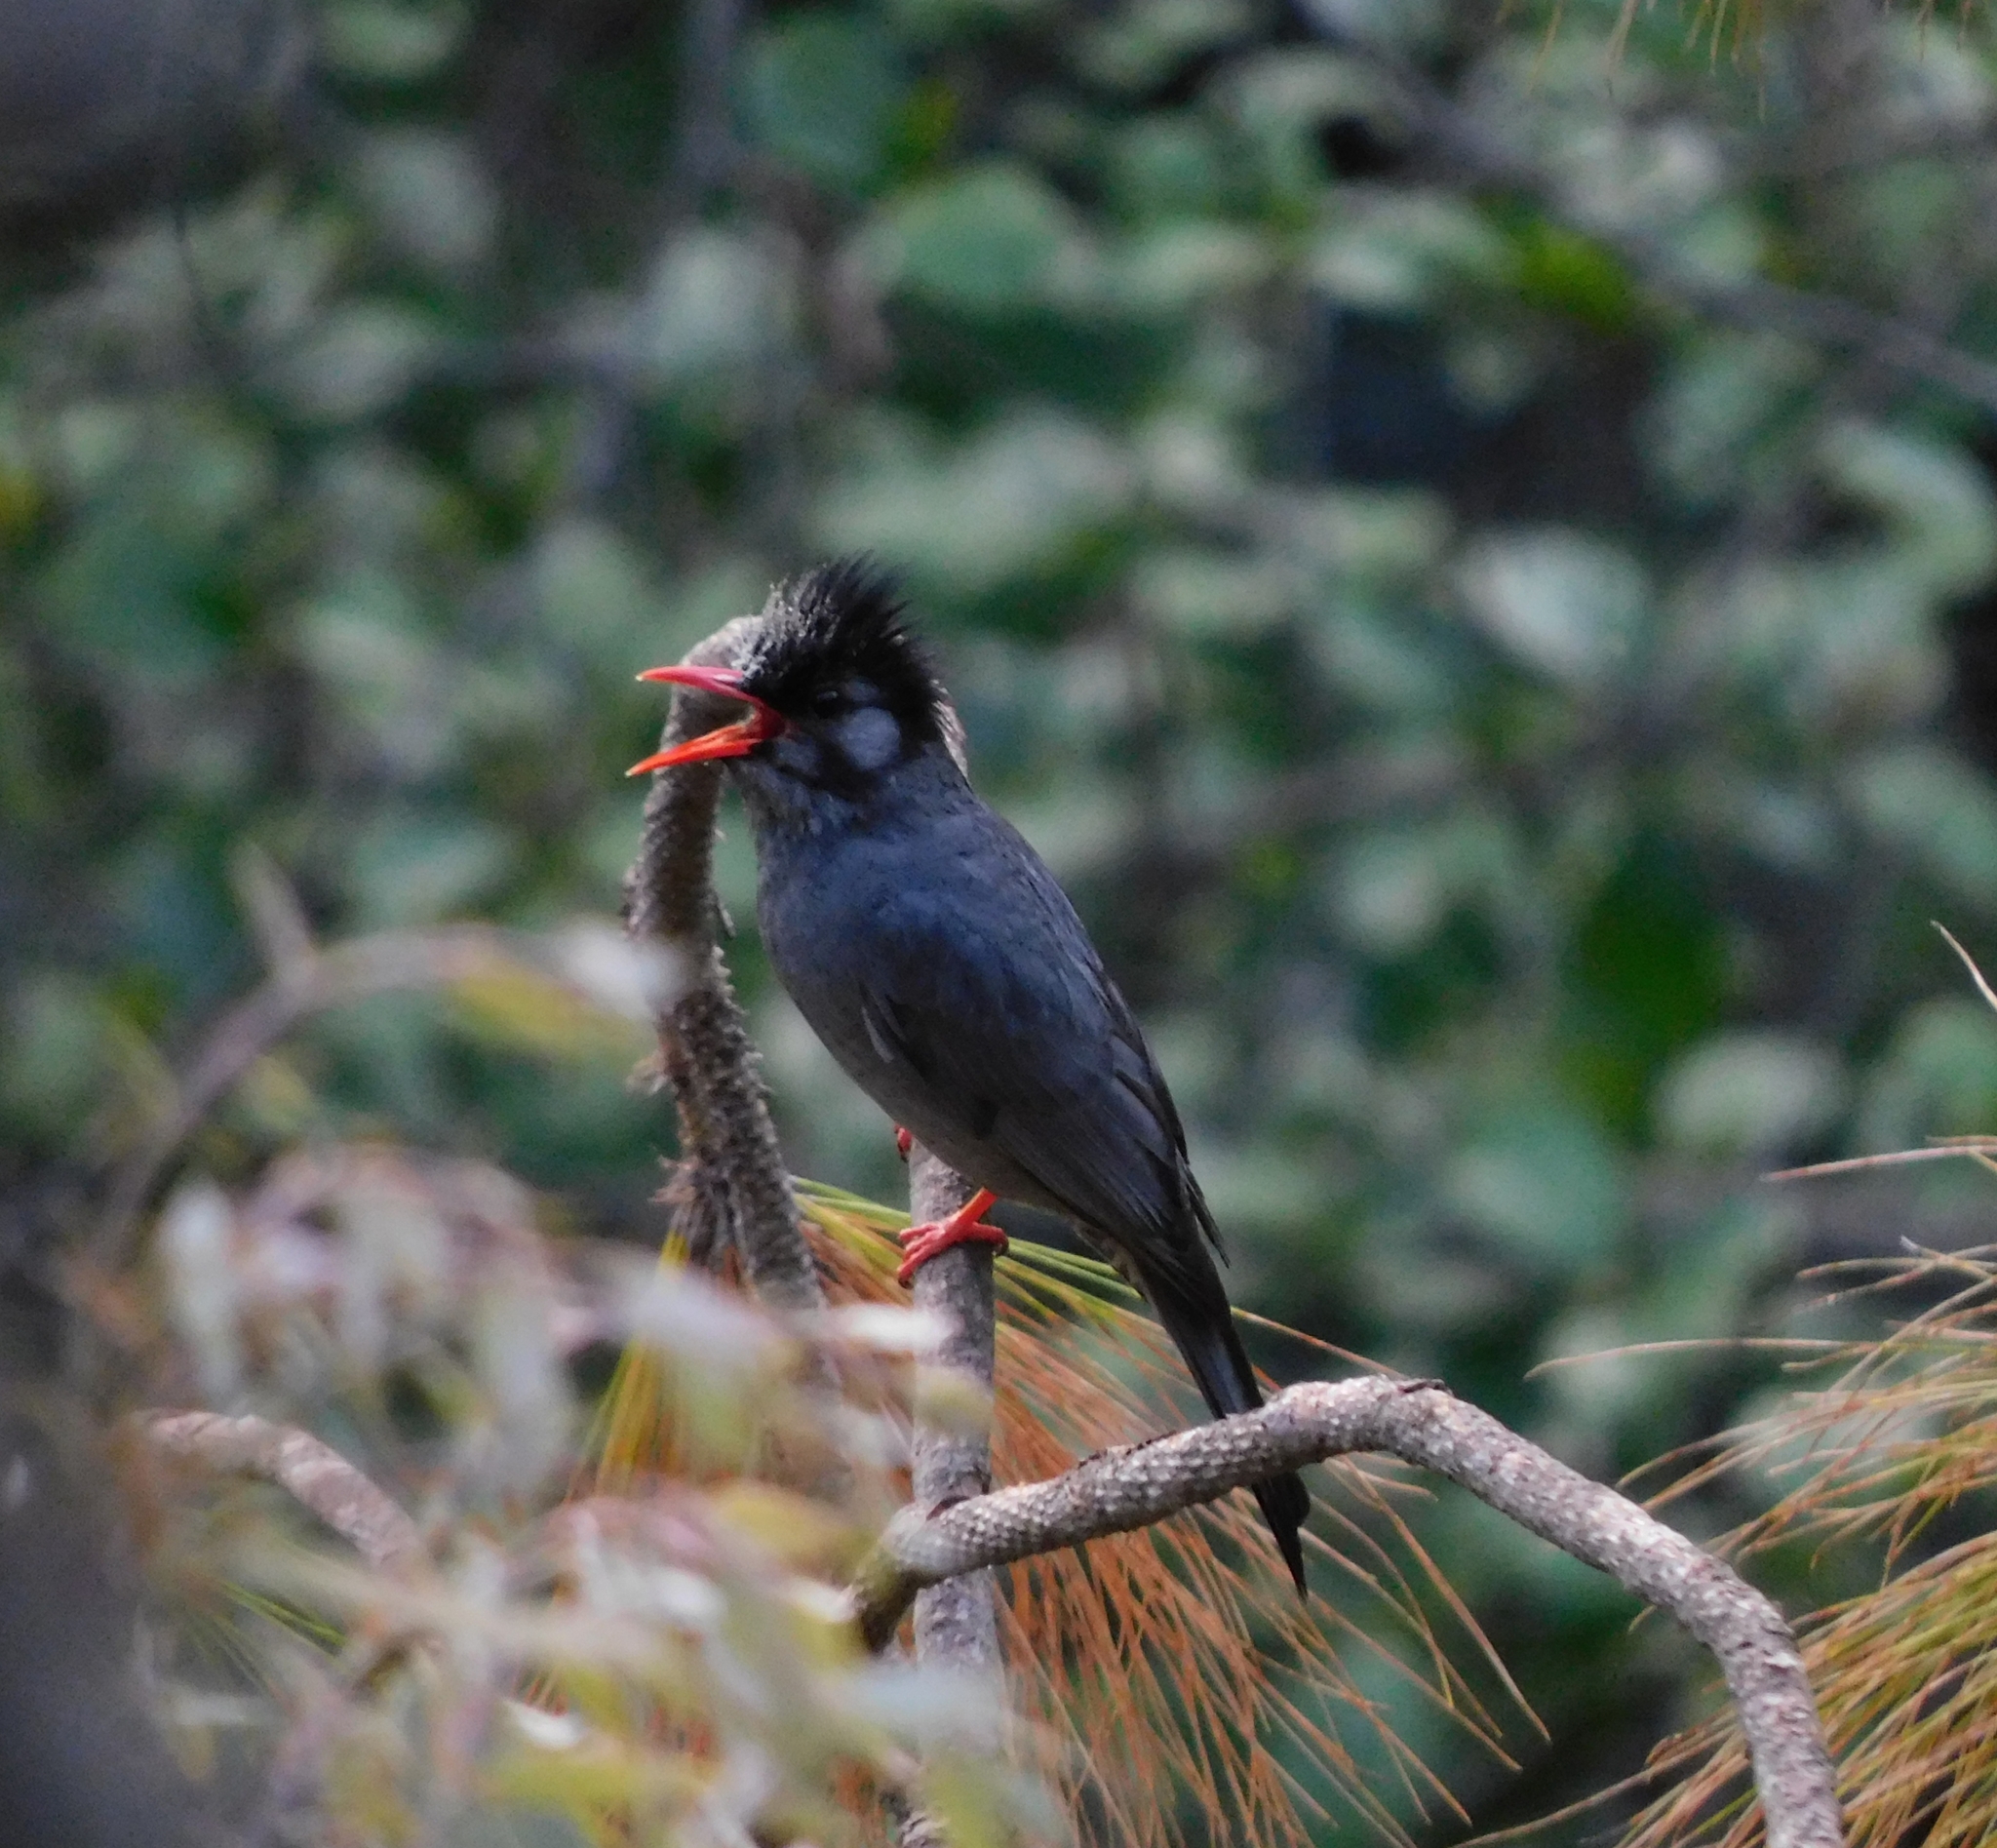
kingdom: Animalia
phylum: Chordata
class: Aves
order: Passeriformes
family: Pycnonotidae
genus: Hypsipetes
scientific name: Hypsipetes leucocephalus
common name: Black bulbul
